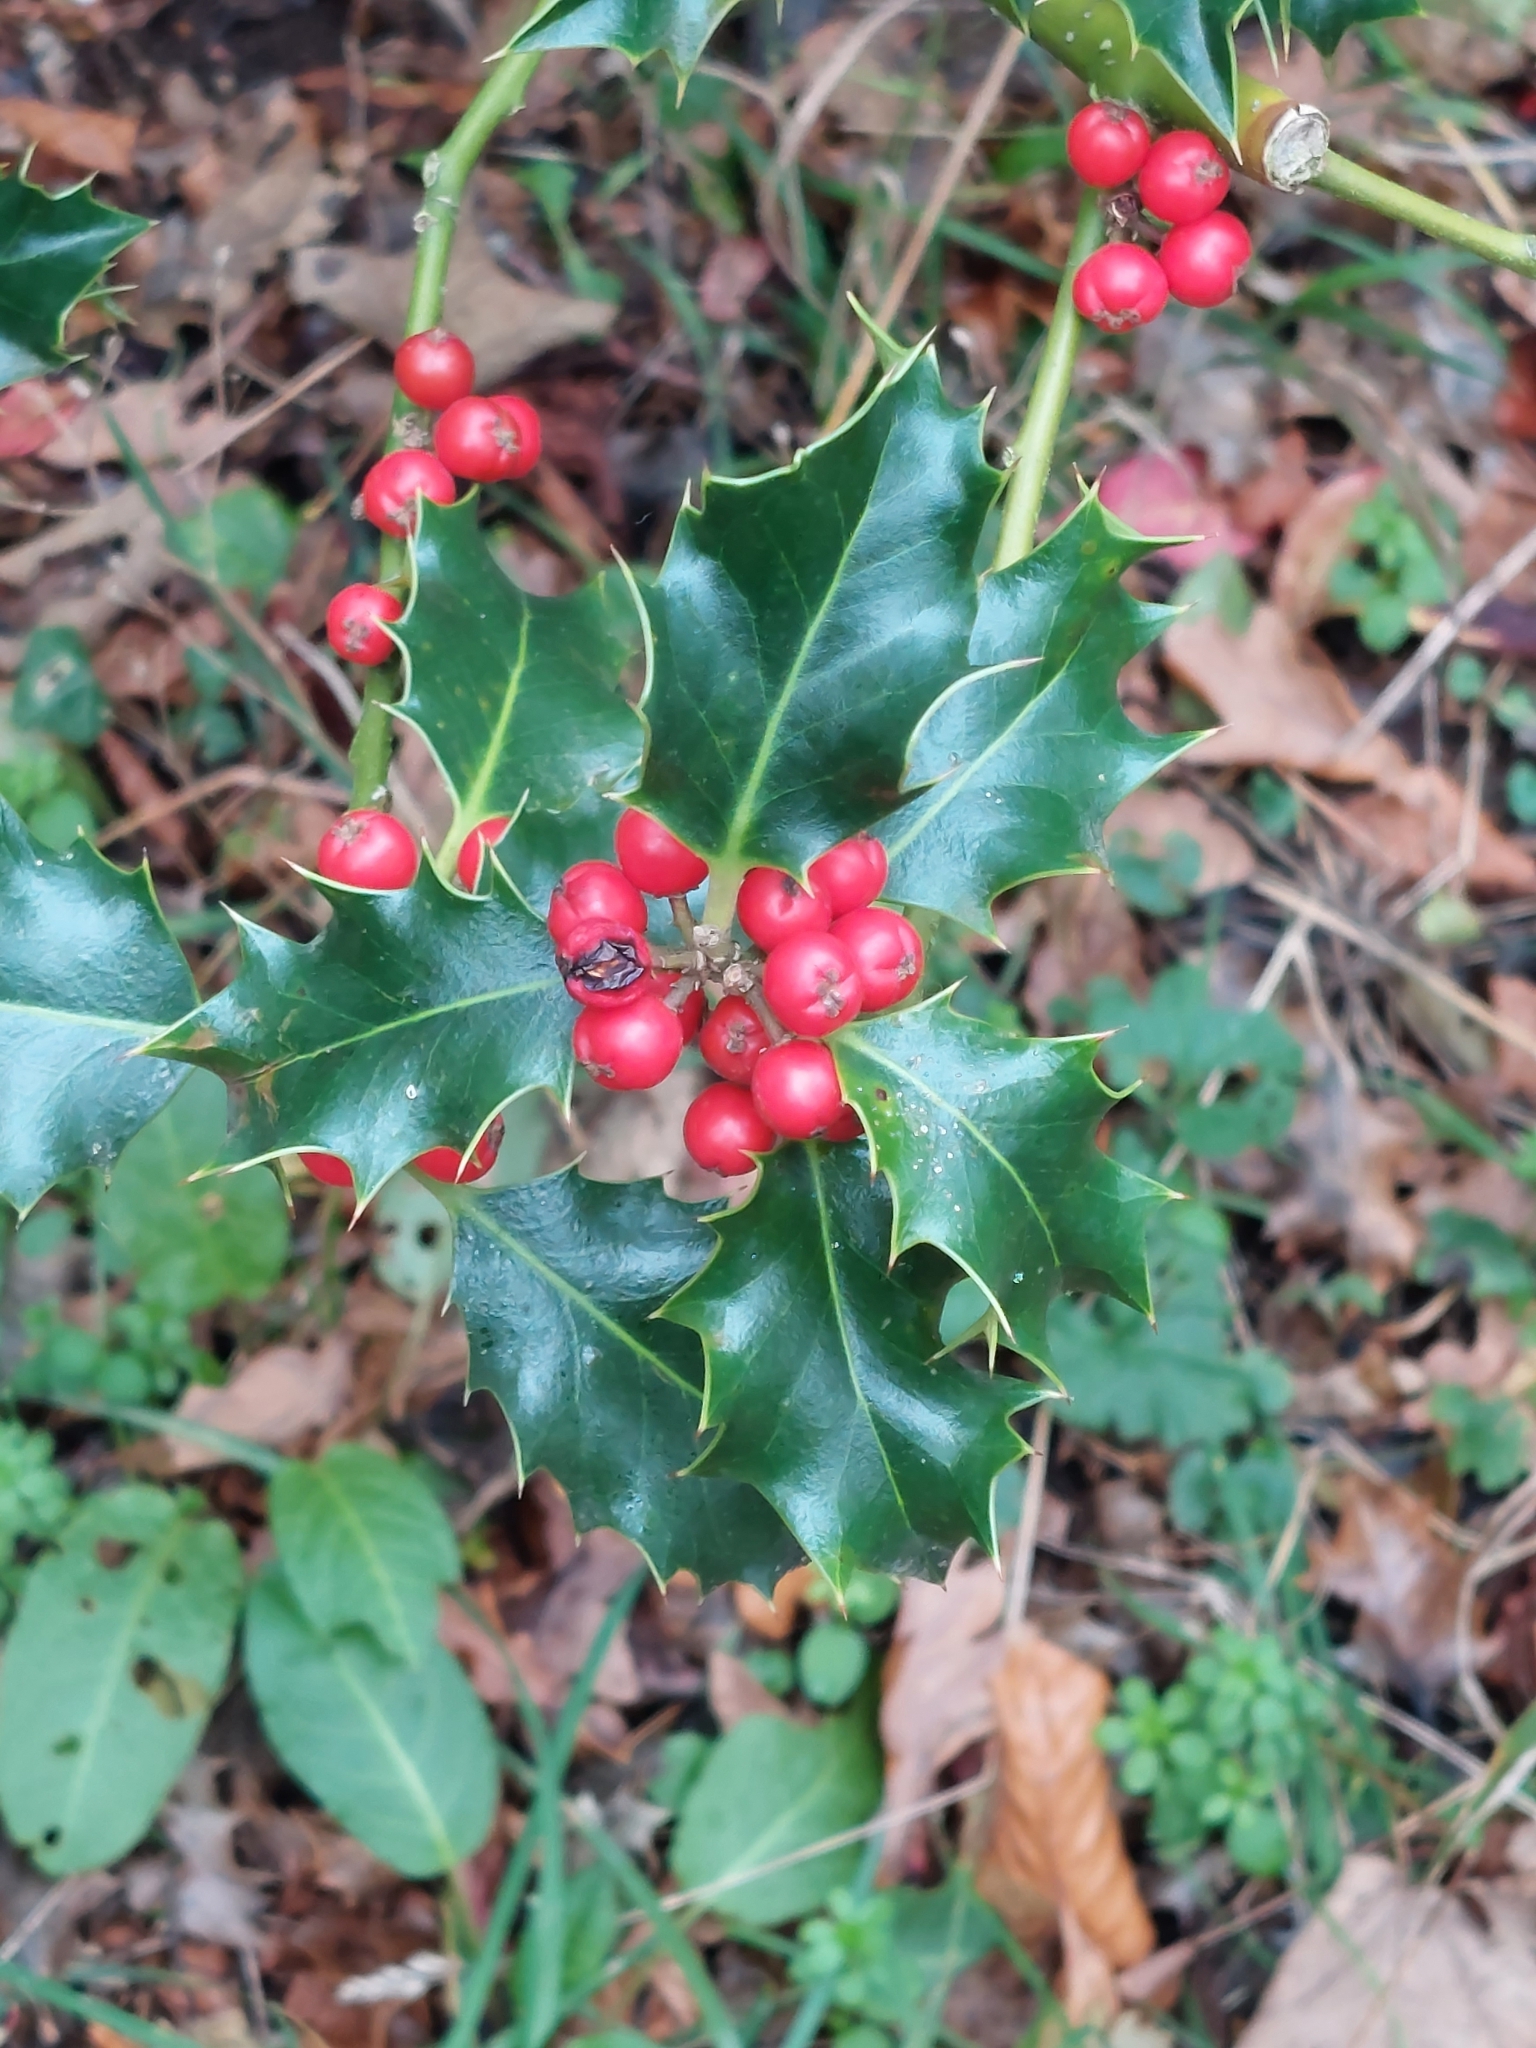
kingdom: Plantae
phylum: Tracheophyta
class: Magnoliopsida
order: Aquifoliales
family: Aquifoliaceae
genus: Ilex
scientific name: Ilex aquifolium
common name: English holly
